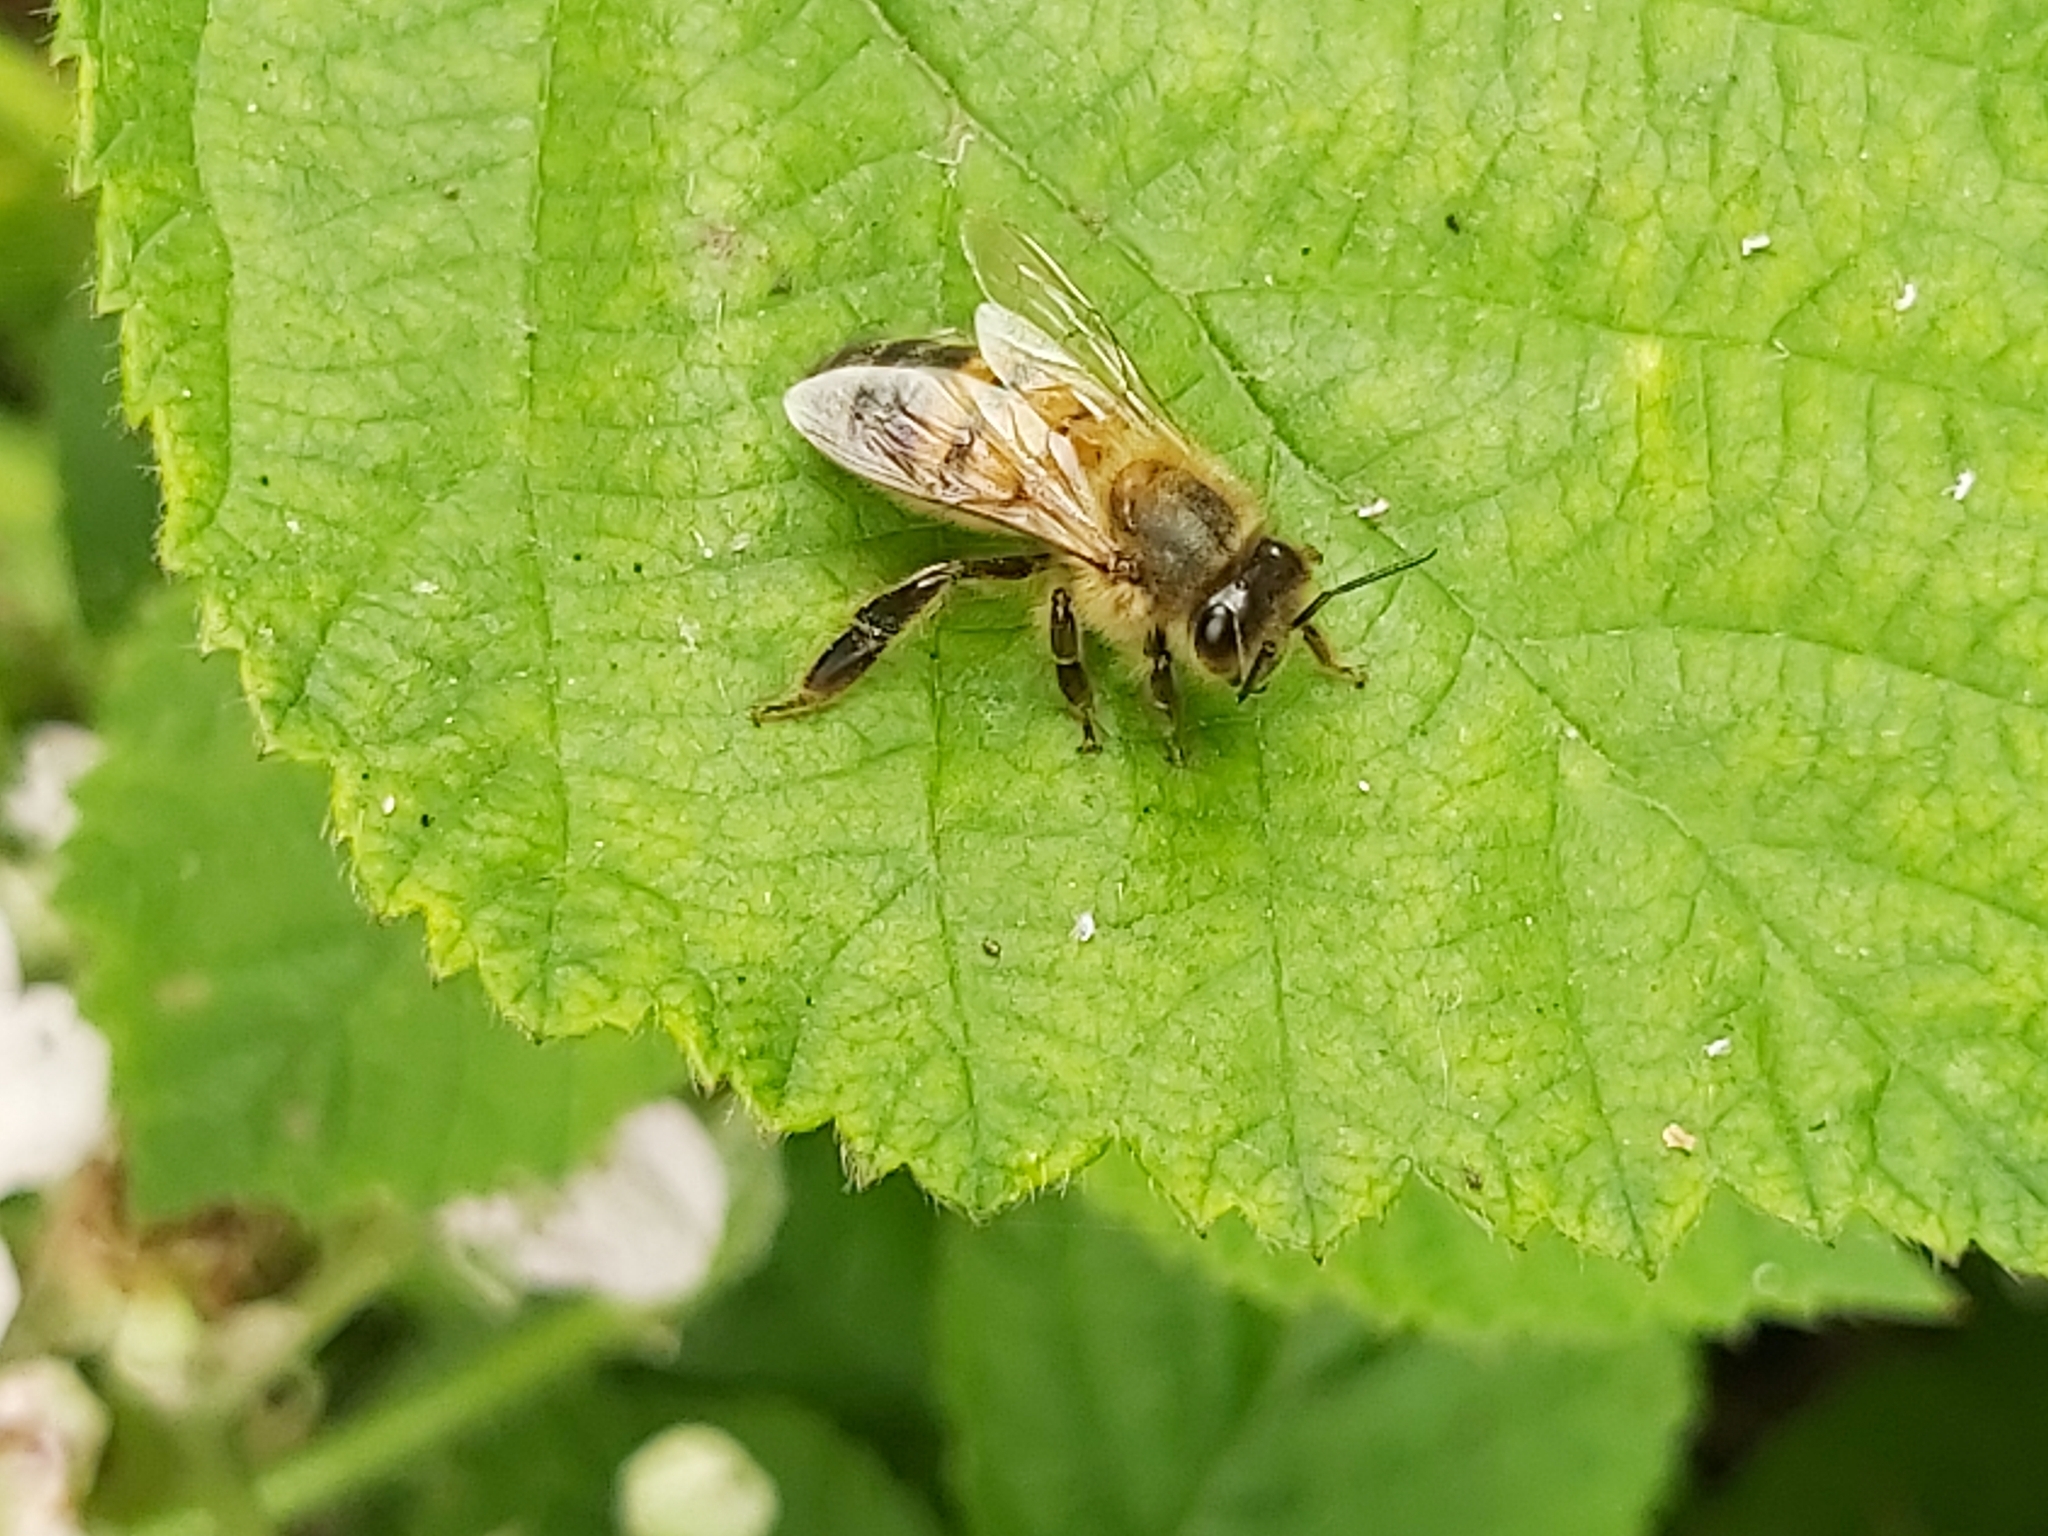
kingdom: Animalia
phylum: Arthropoda
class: Insecta
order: Hymenoptera
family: Apidae
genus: Apis
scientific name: Apis mellifera
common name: Honey bee
